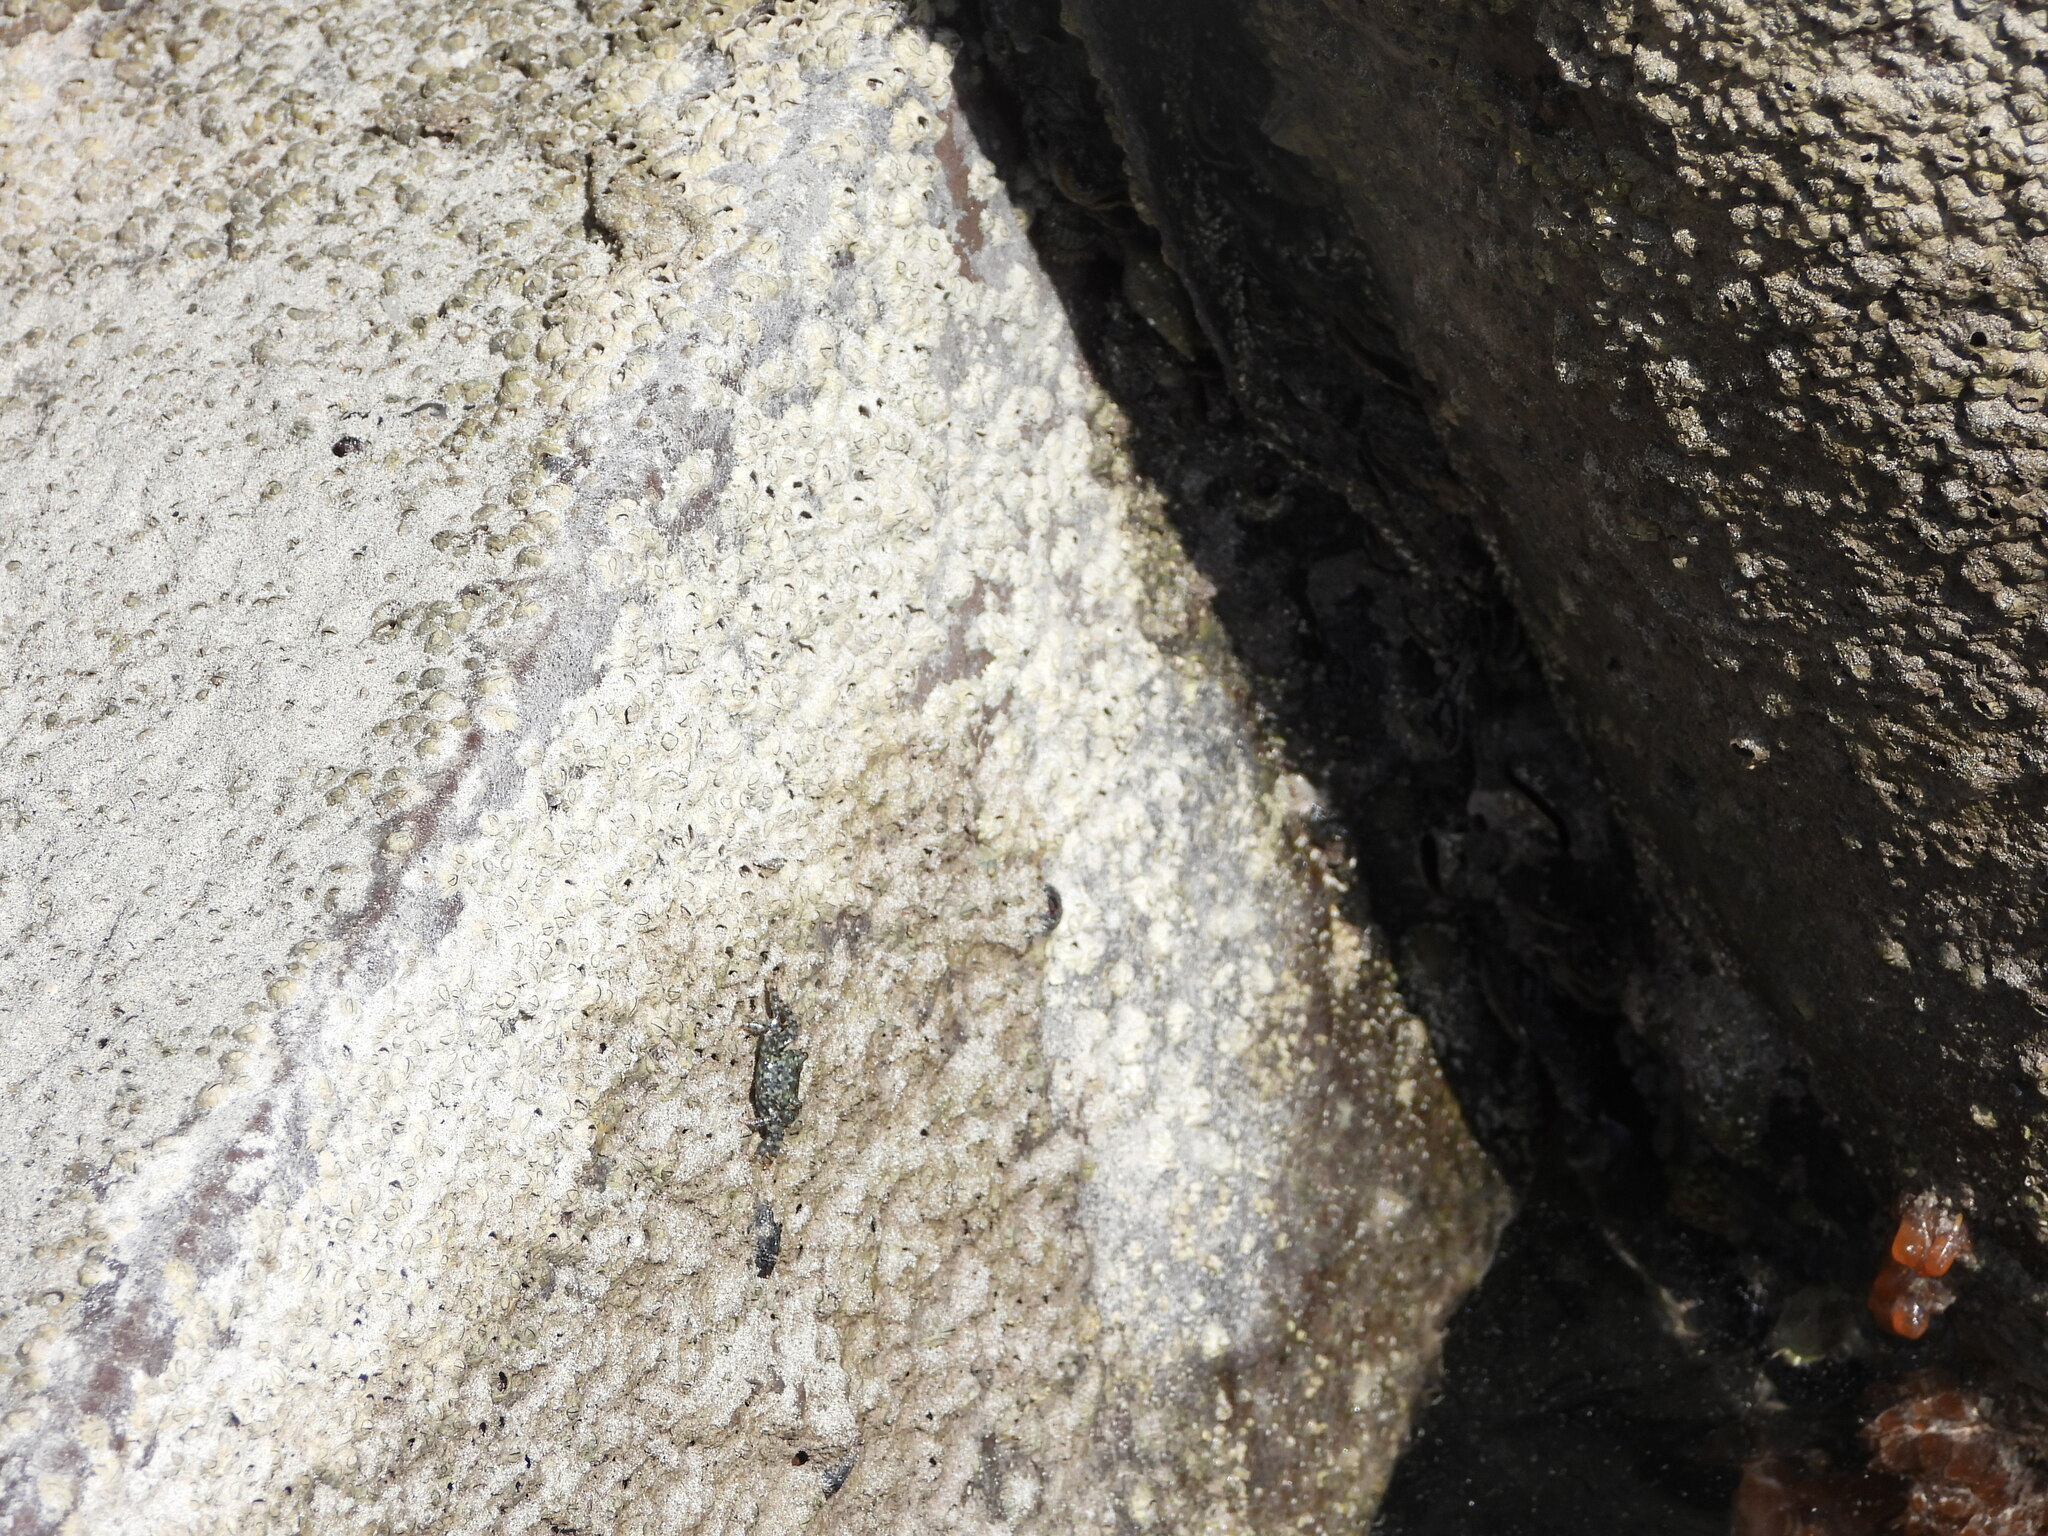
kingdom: Animalia
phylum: Arthropoda
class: Malacostraca
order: Decapoda
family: Grapsidae
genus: Pachygrapsus
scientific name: Pachygrapsus transversus
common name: Mottled shore crab
